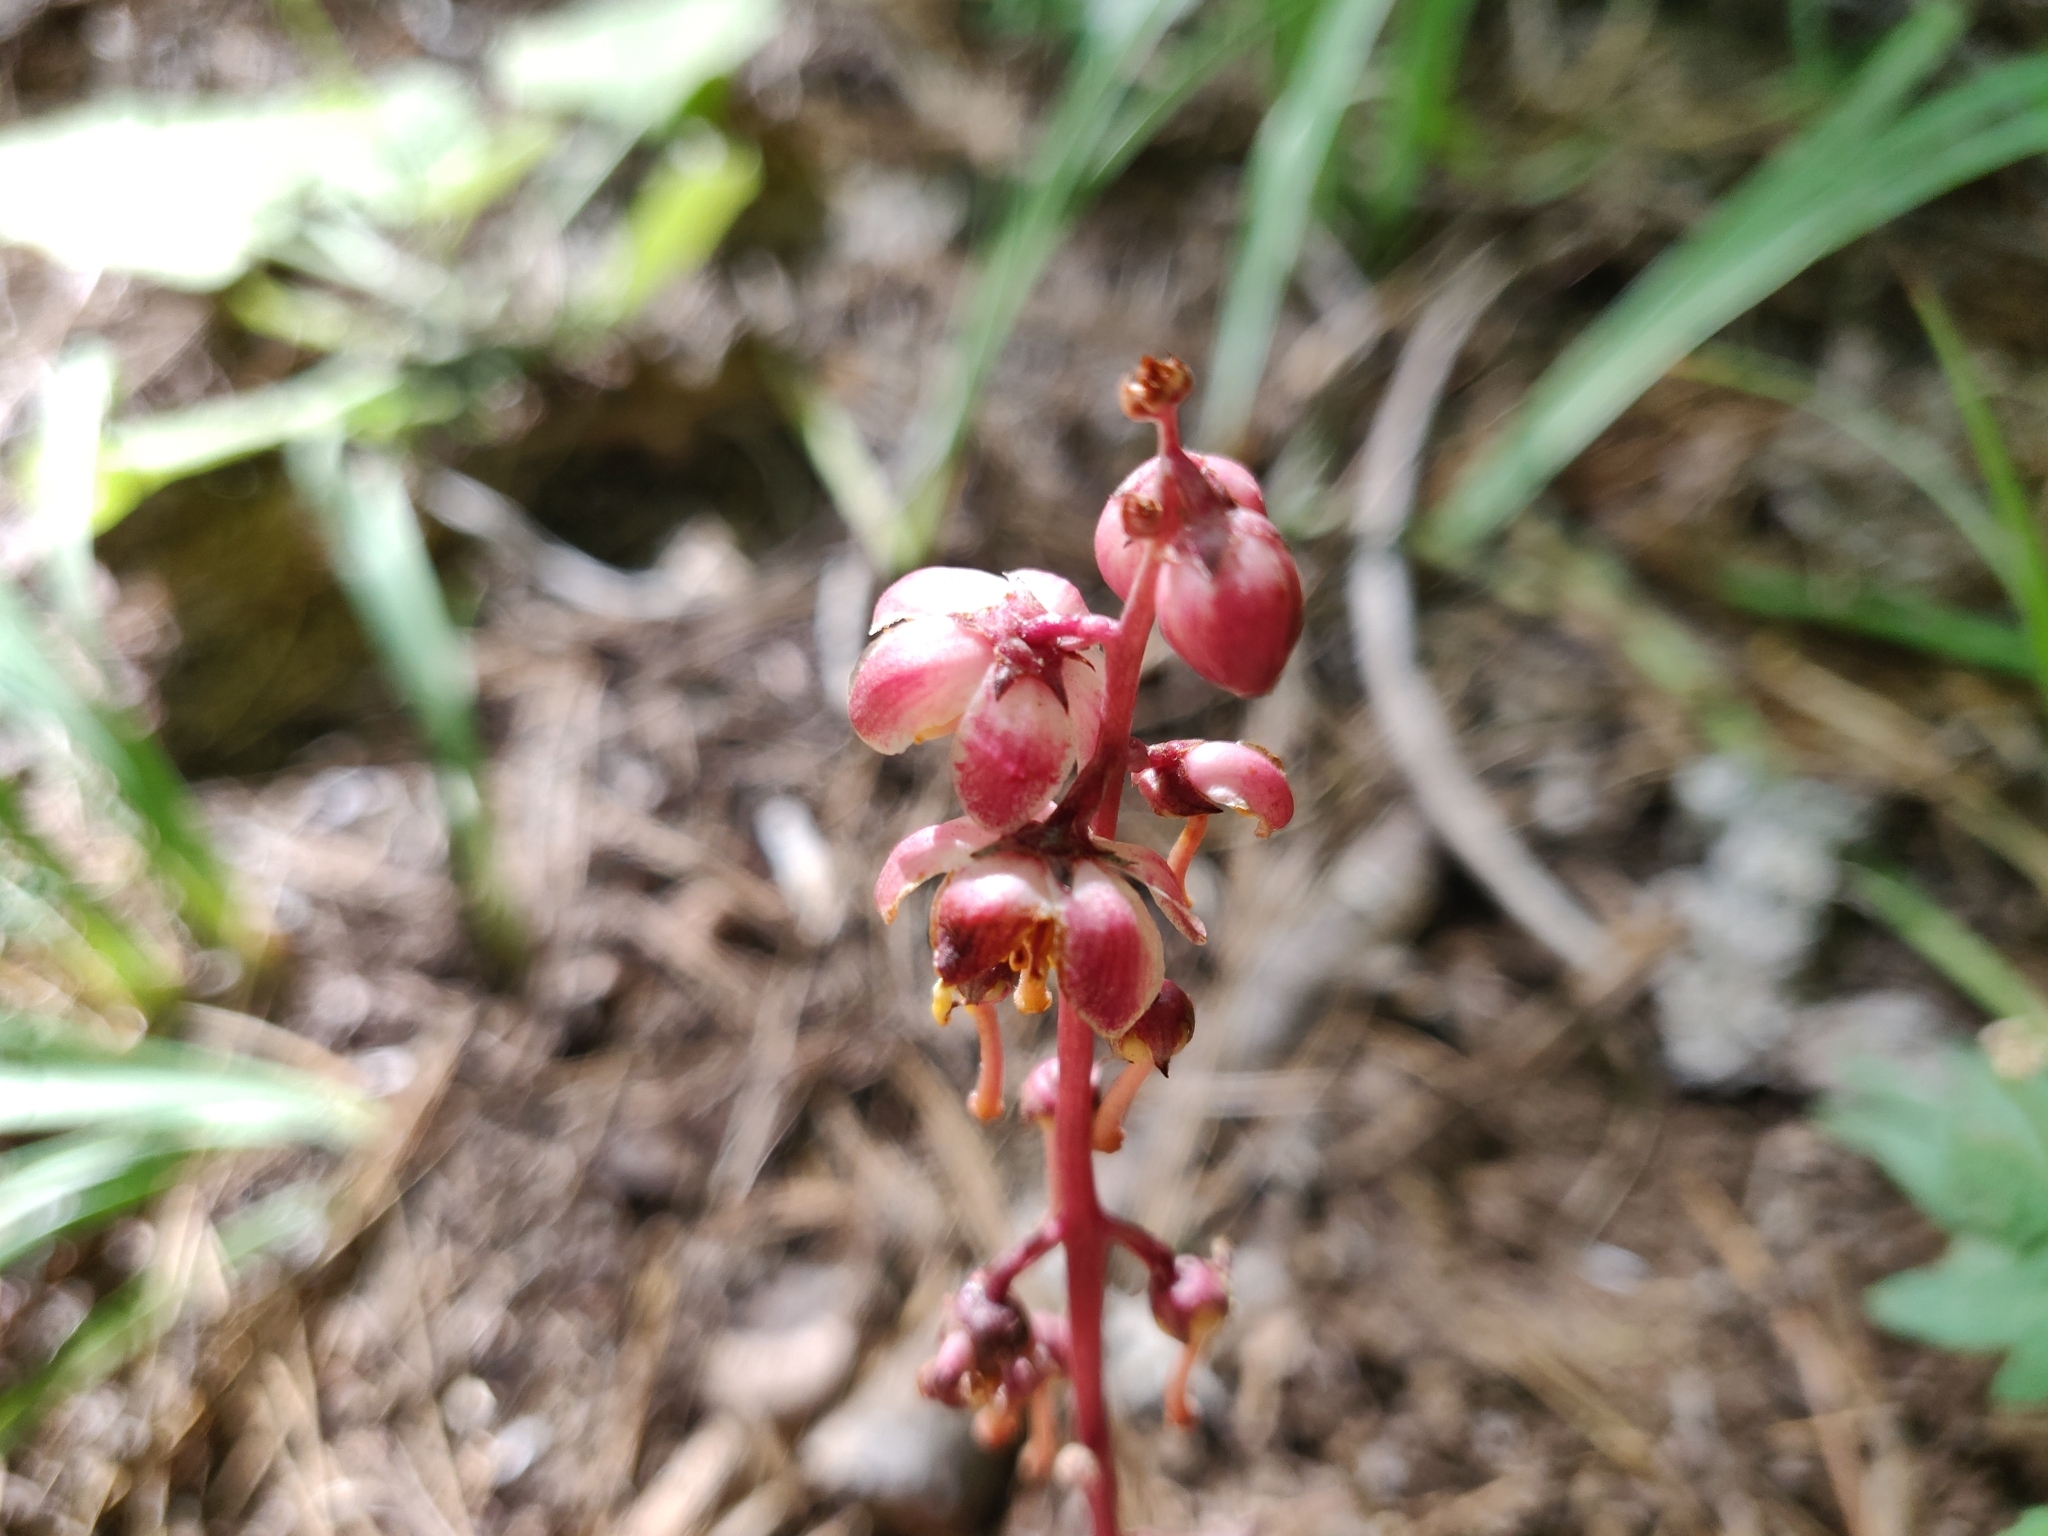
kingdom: Plantae
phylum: Tracheophyta
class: Magnoliopsida
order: Ericales
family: Ericaceae
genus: Pyrola
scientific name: Pyrola aphylla
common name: Leafless wintergreen
